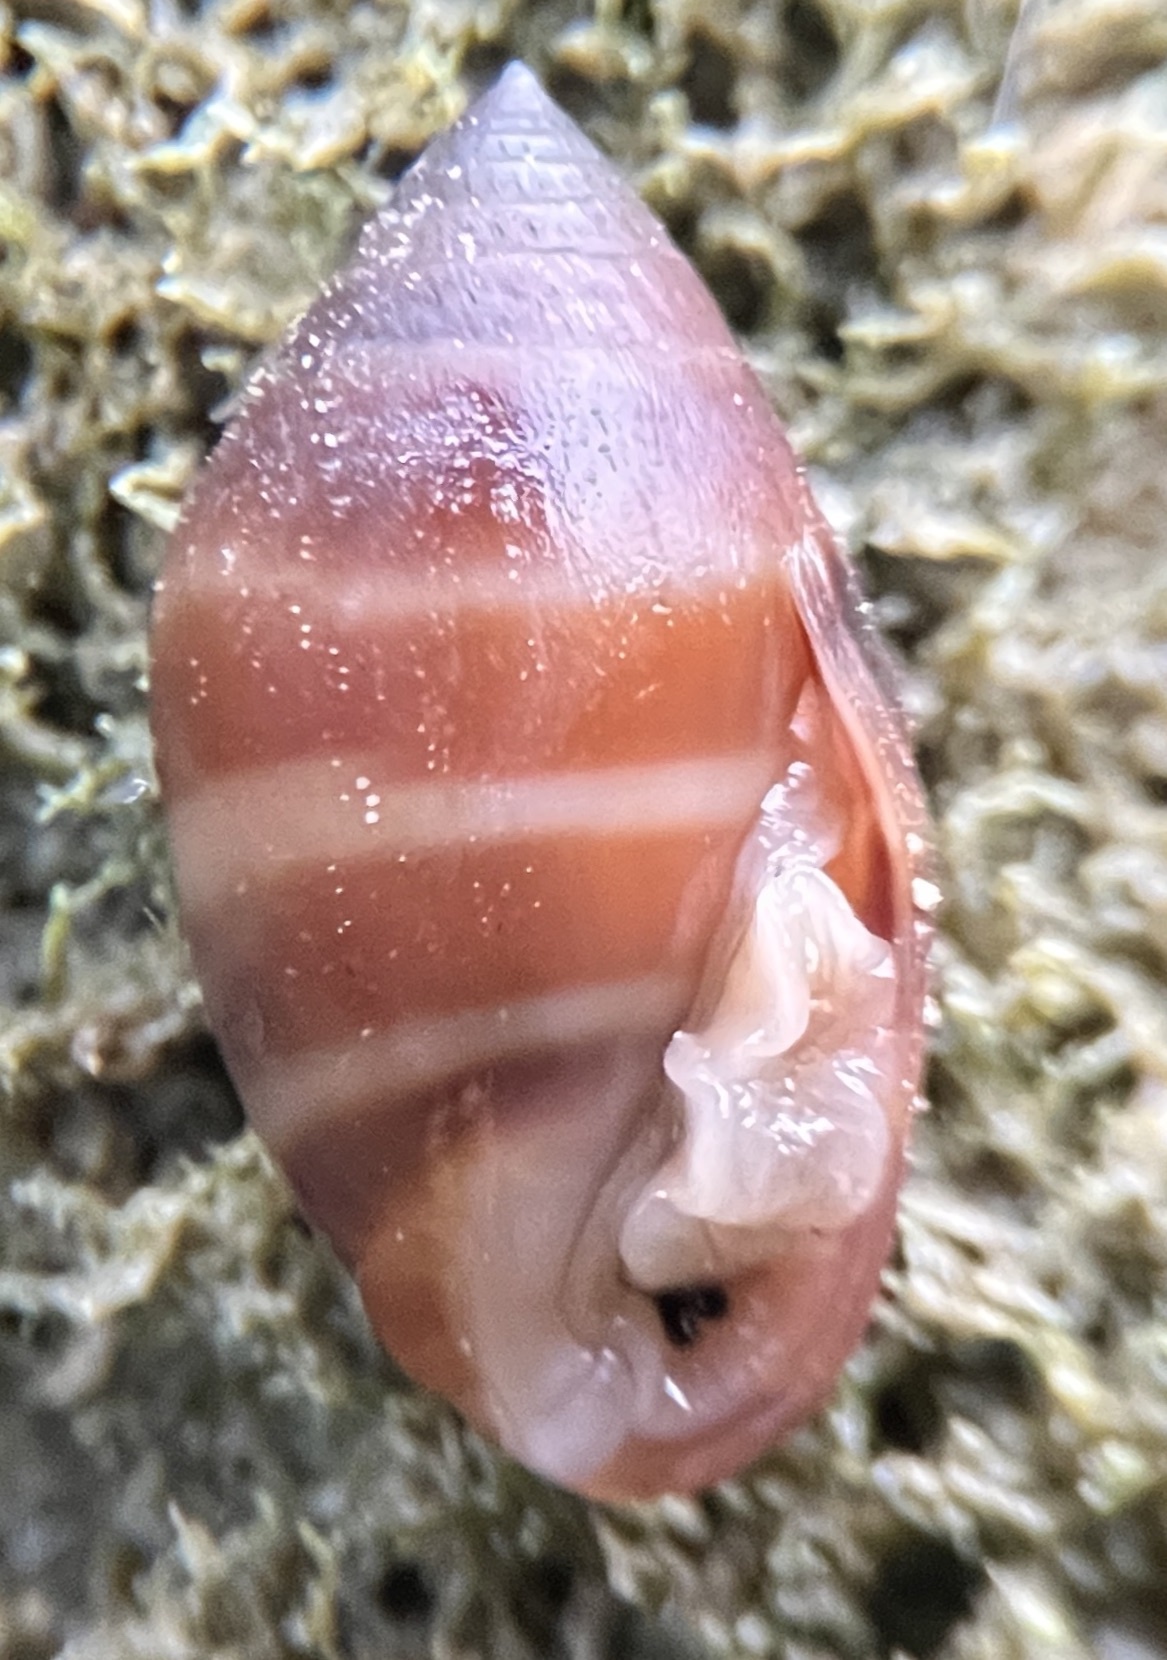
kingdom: Animalia
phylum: Mollusca
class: Gastropoda
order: Ellobiida
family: Ellobiidae
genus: Melampus
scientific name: Melampus monile
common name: Caribbean melampus
